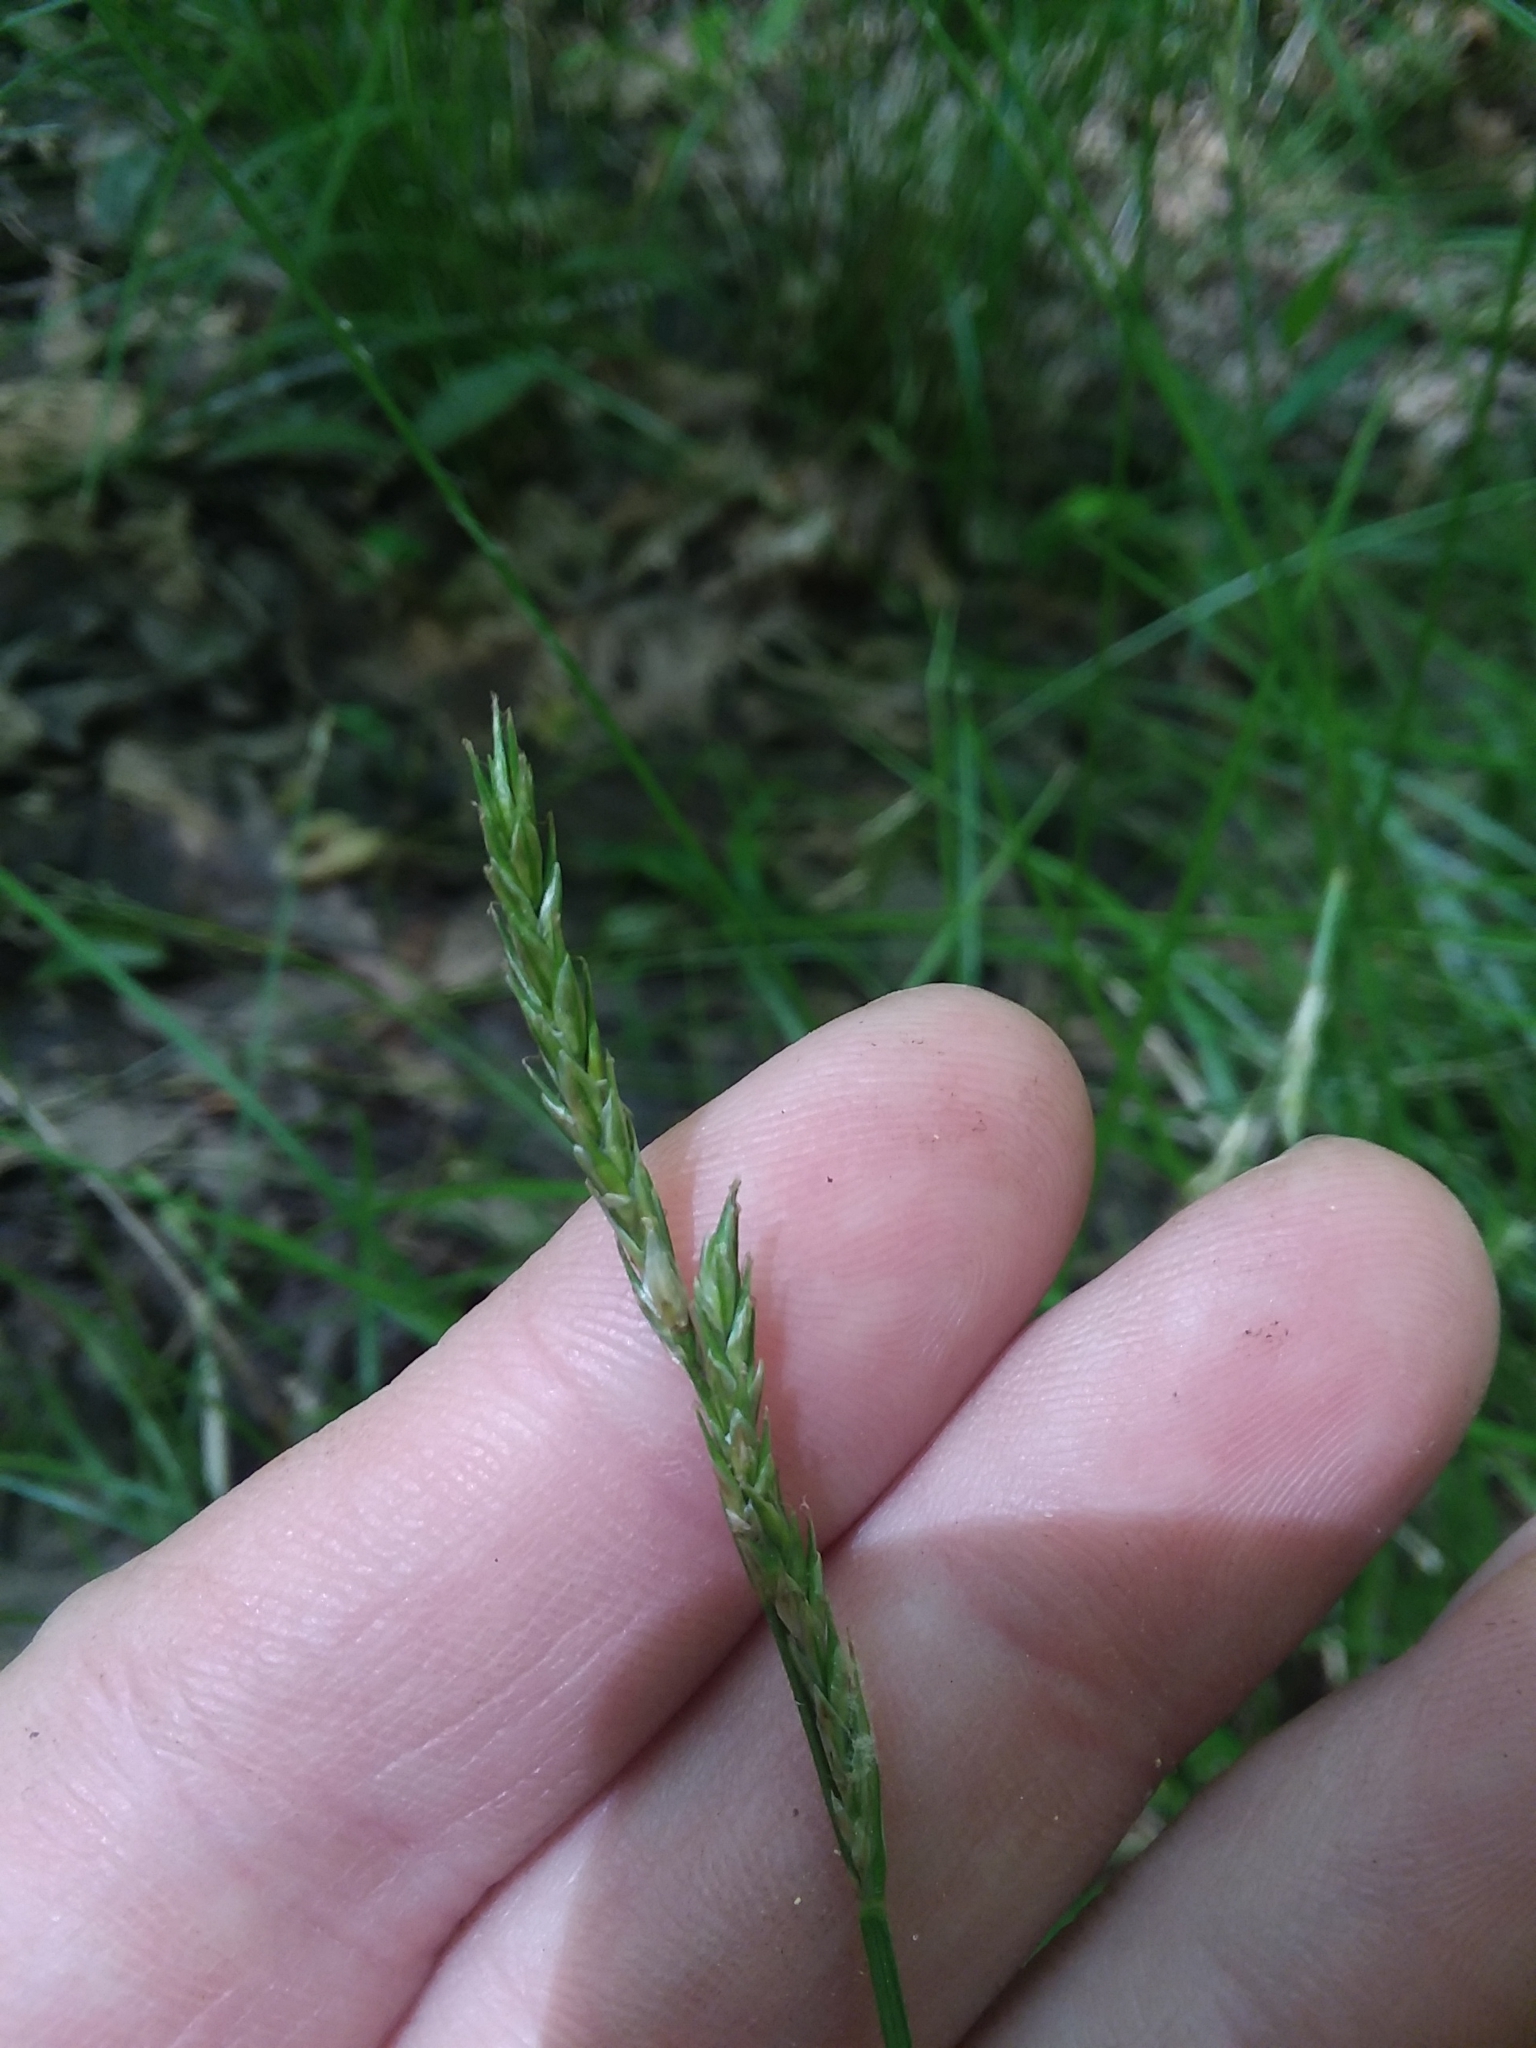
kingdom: Plantae
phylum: Tracheophyta
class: Liliopsida
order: Poales
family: Cyperaceae
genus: Carex
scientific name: Carex bromoides
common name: Brome hummock sedge
